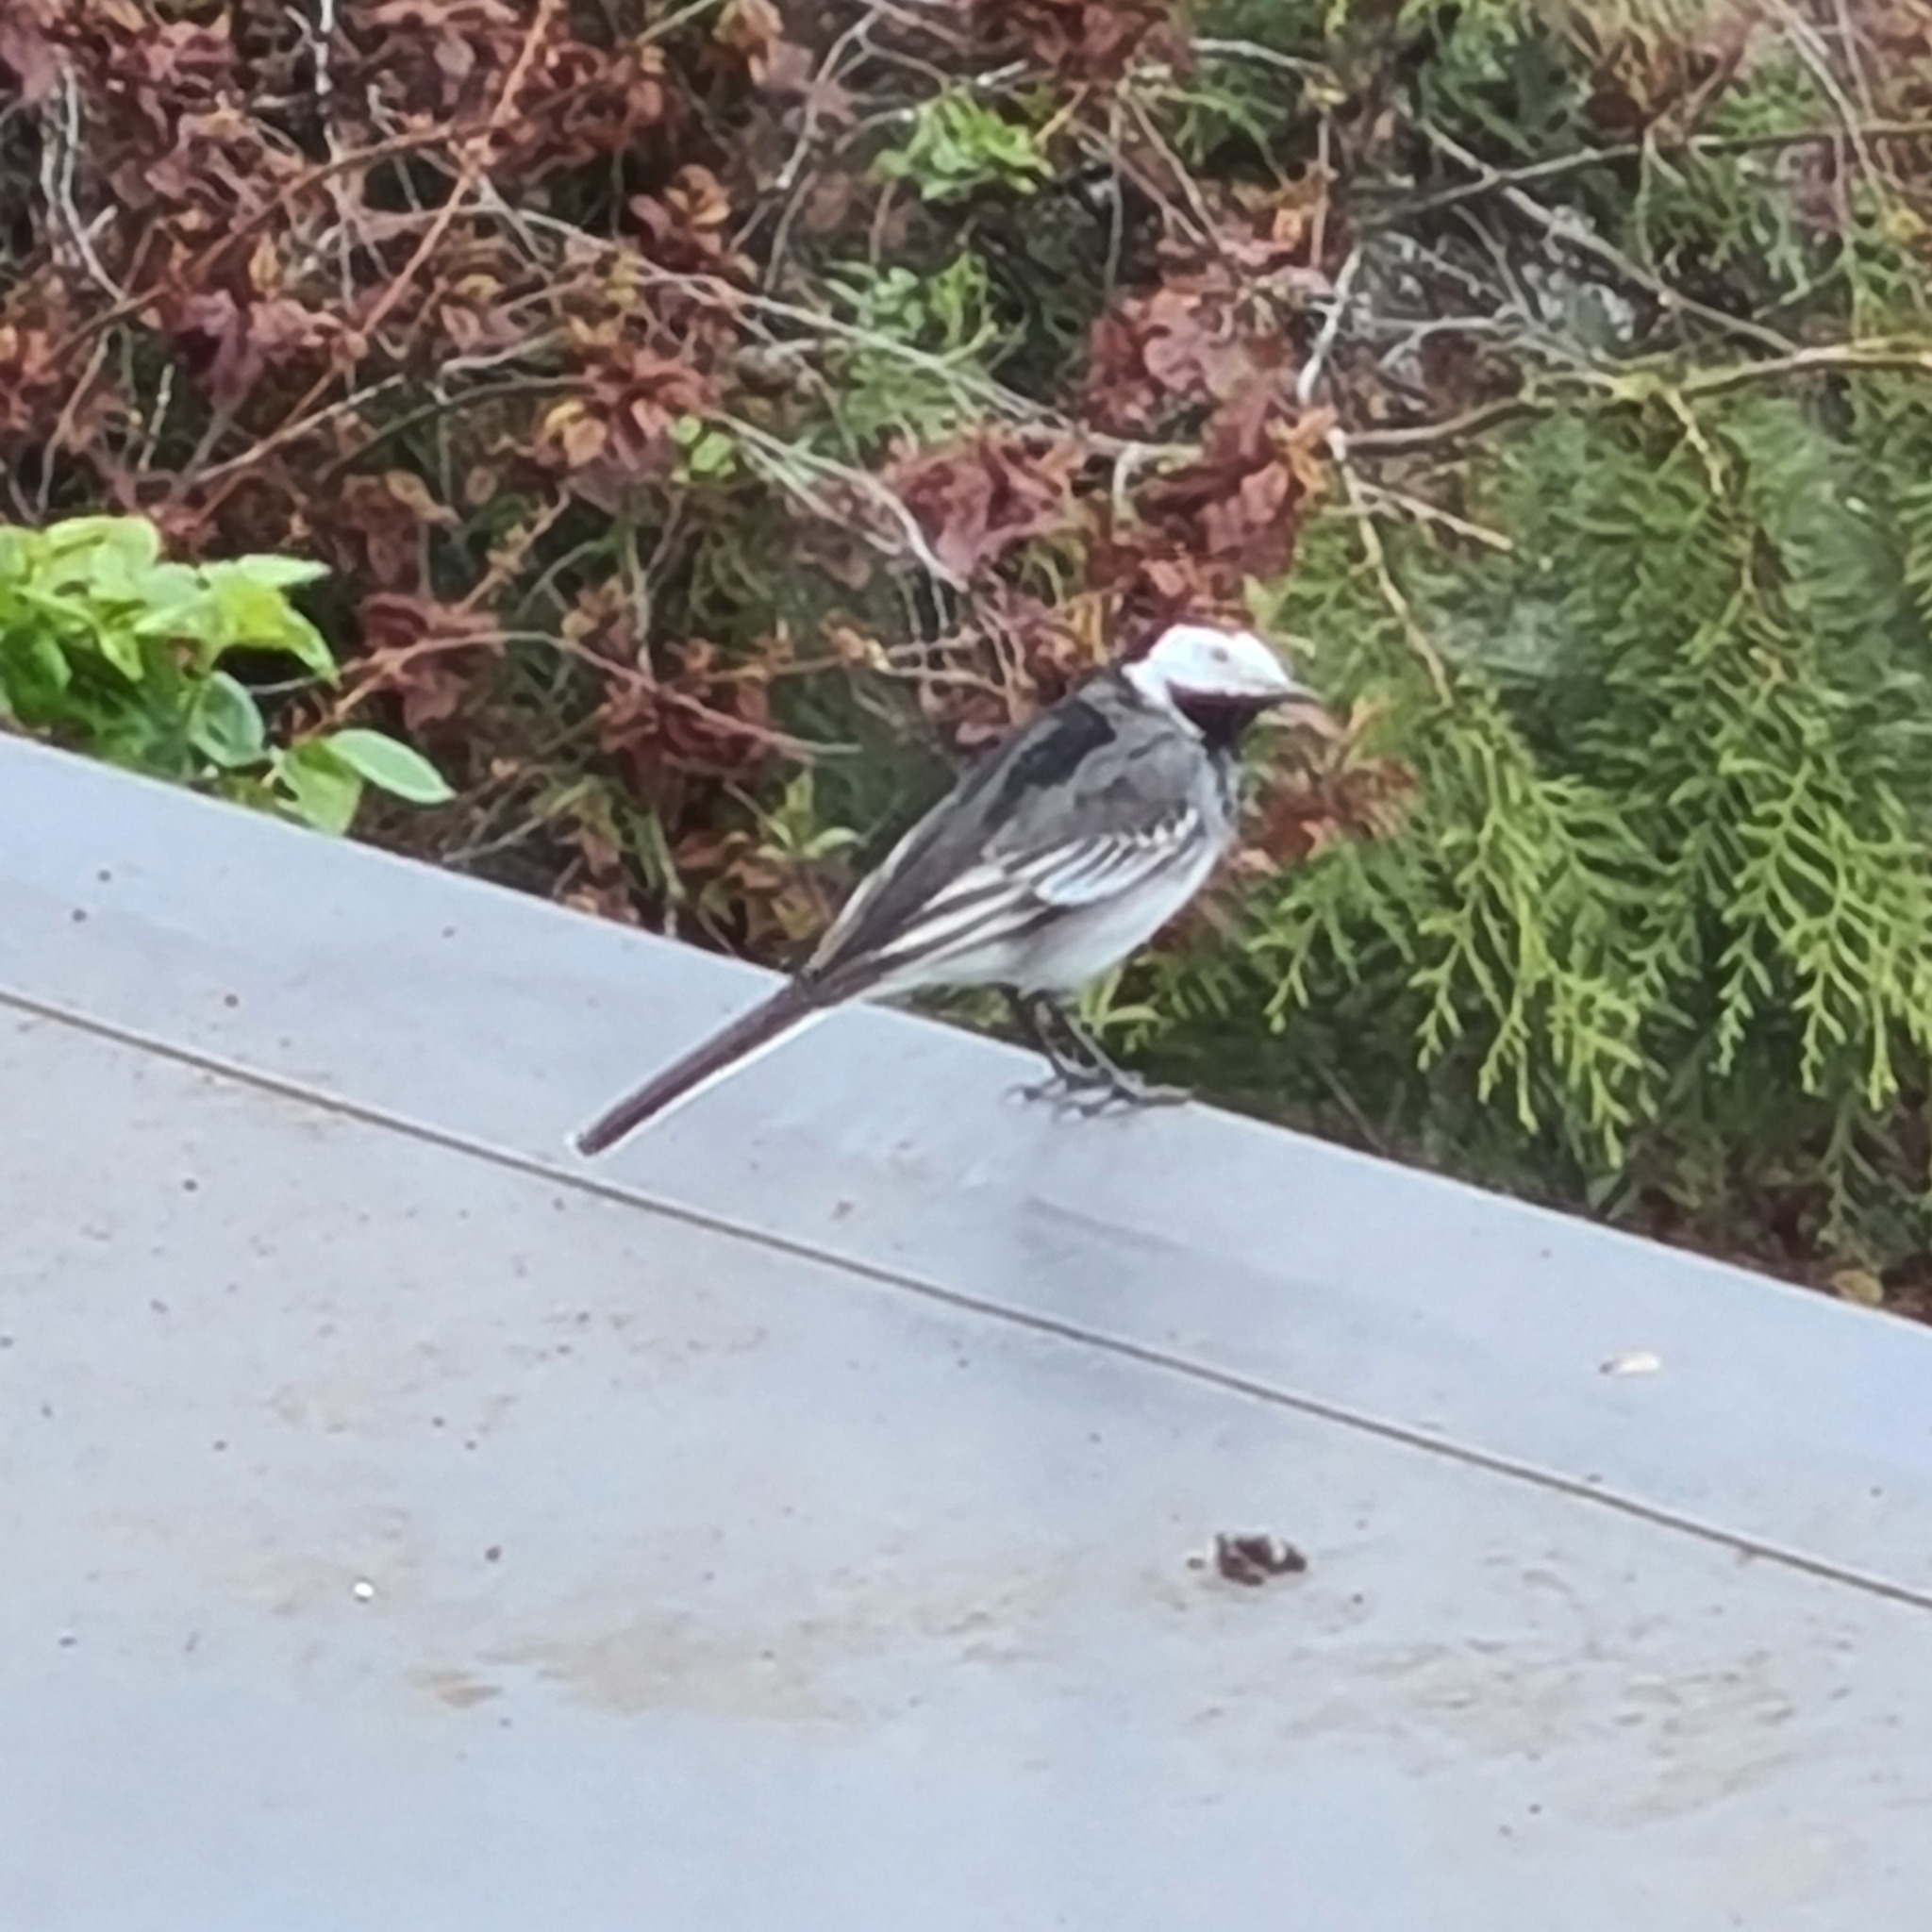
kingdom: Animalia
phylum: Chordata
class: Aves
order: Passeriformes
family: Motacillidae
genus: Motacilla
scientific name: Motacilla alba
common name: White wagtail
